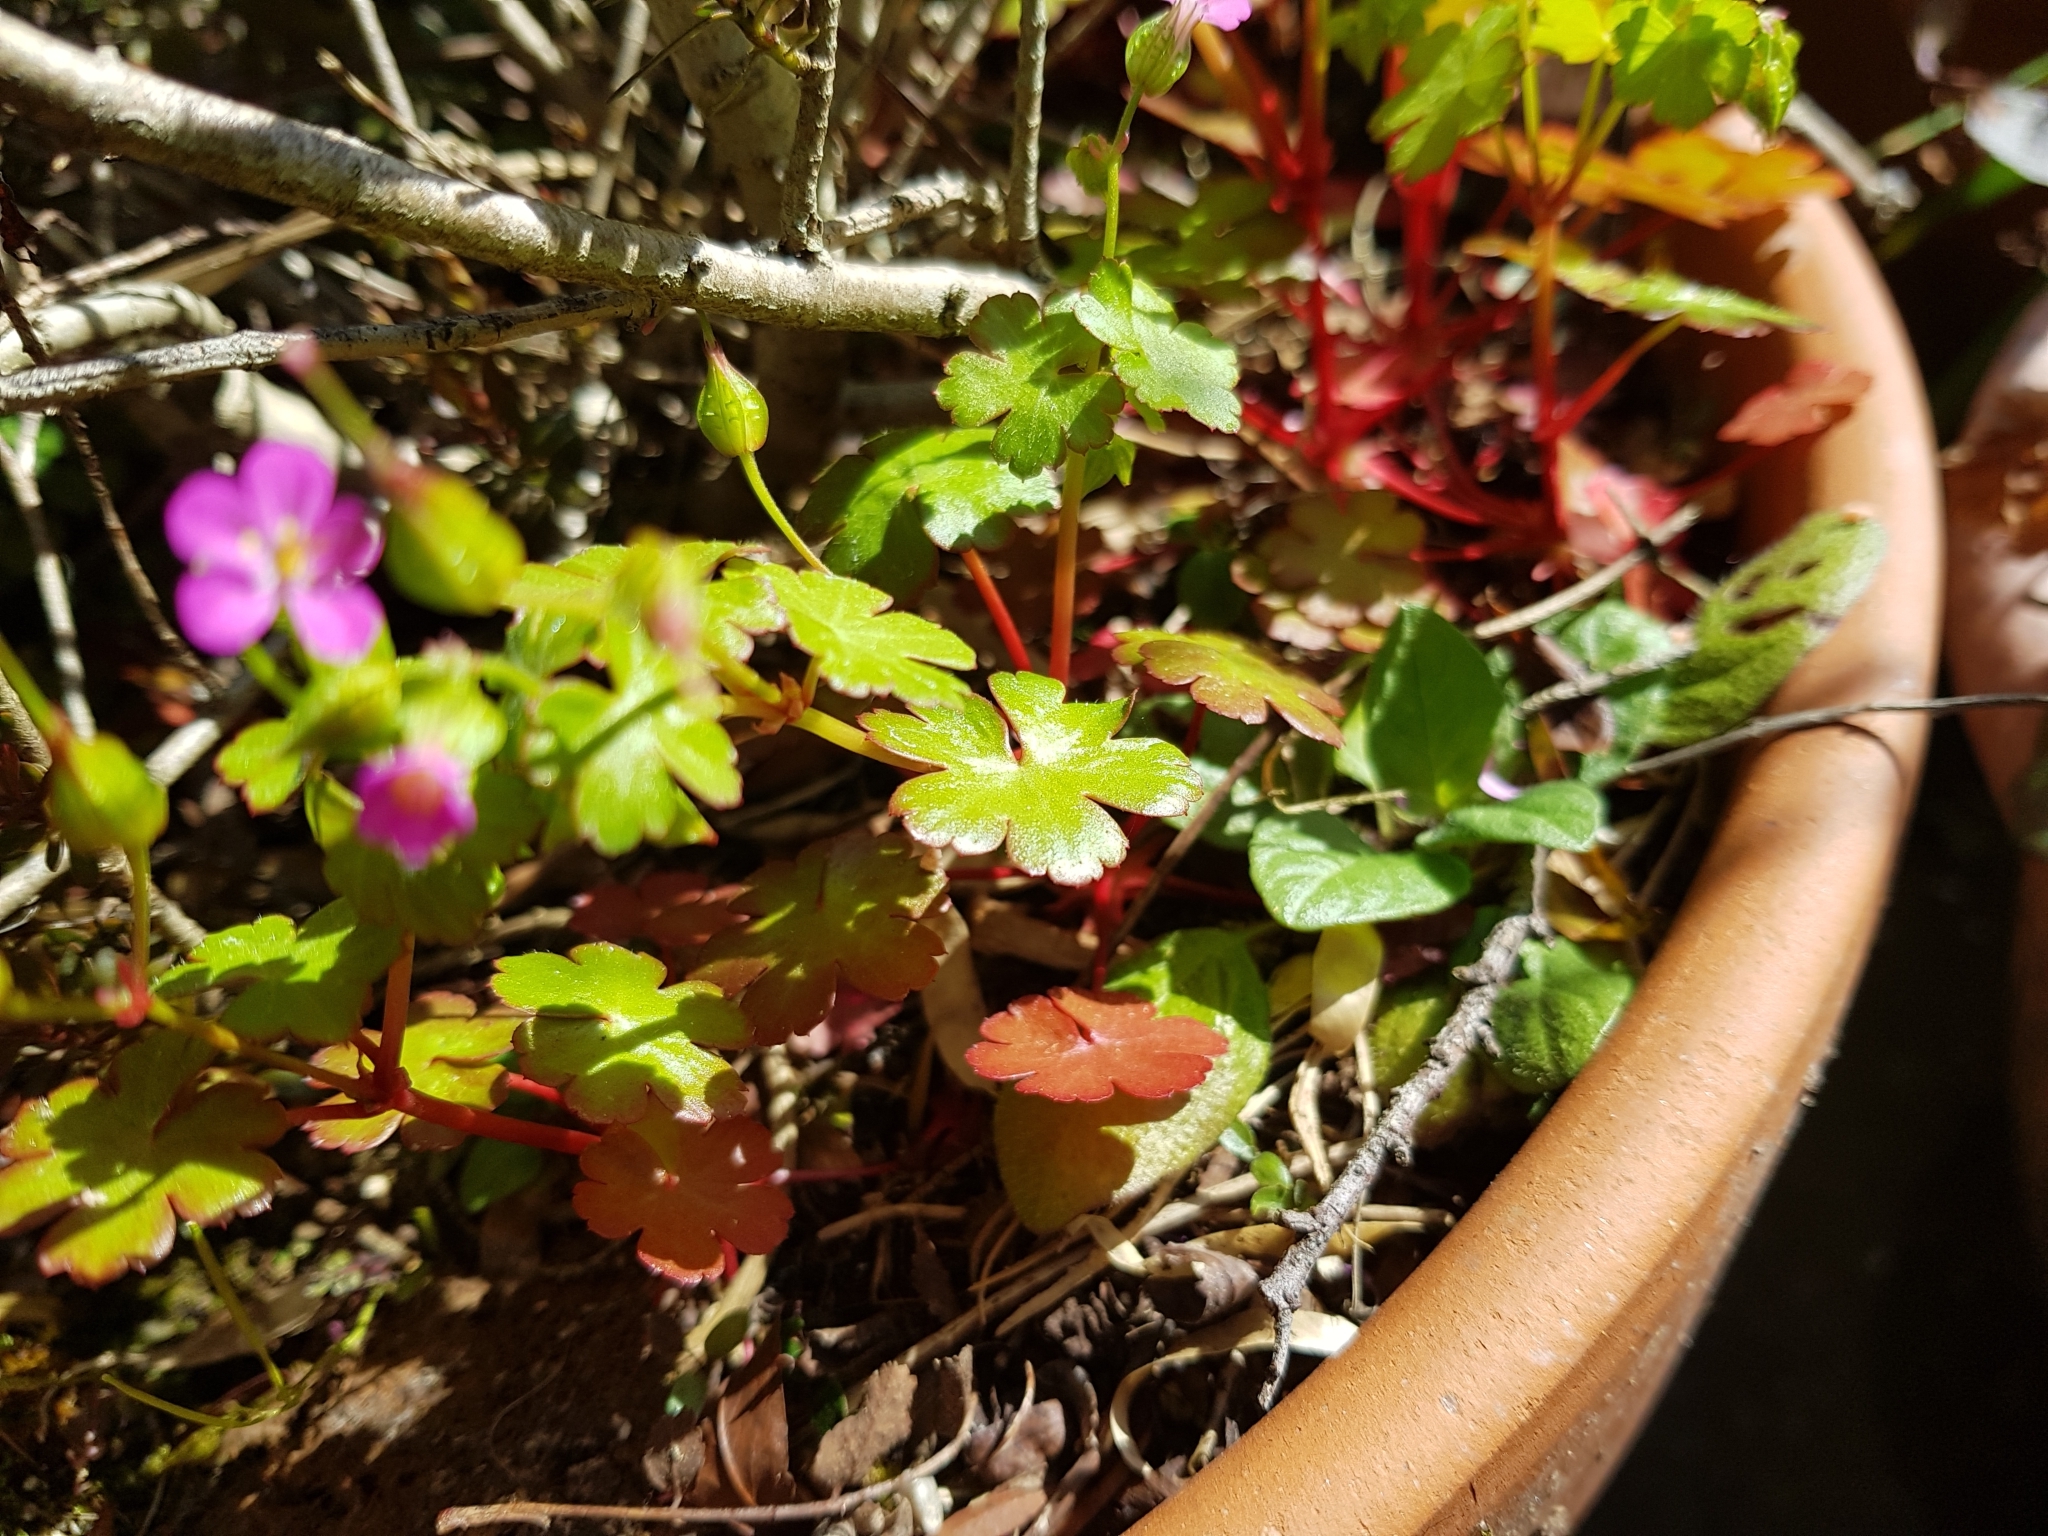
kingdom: Plantae
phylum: Tracheophyta
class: Magnoliopsida
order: Geraniales
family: Geraniaceae
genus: Geranium
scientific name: Geranium lucidum
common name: Shining crane's-bill
